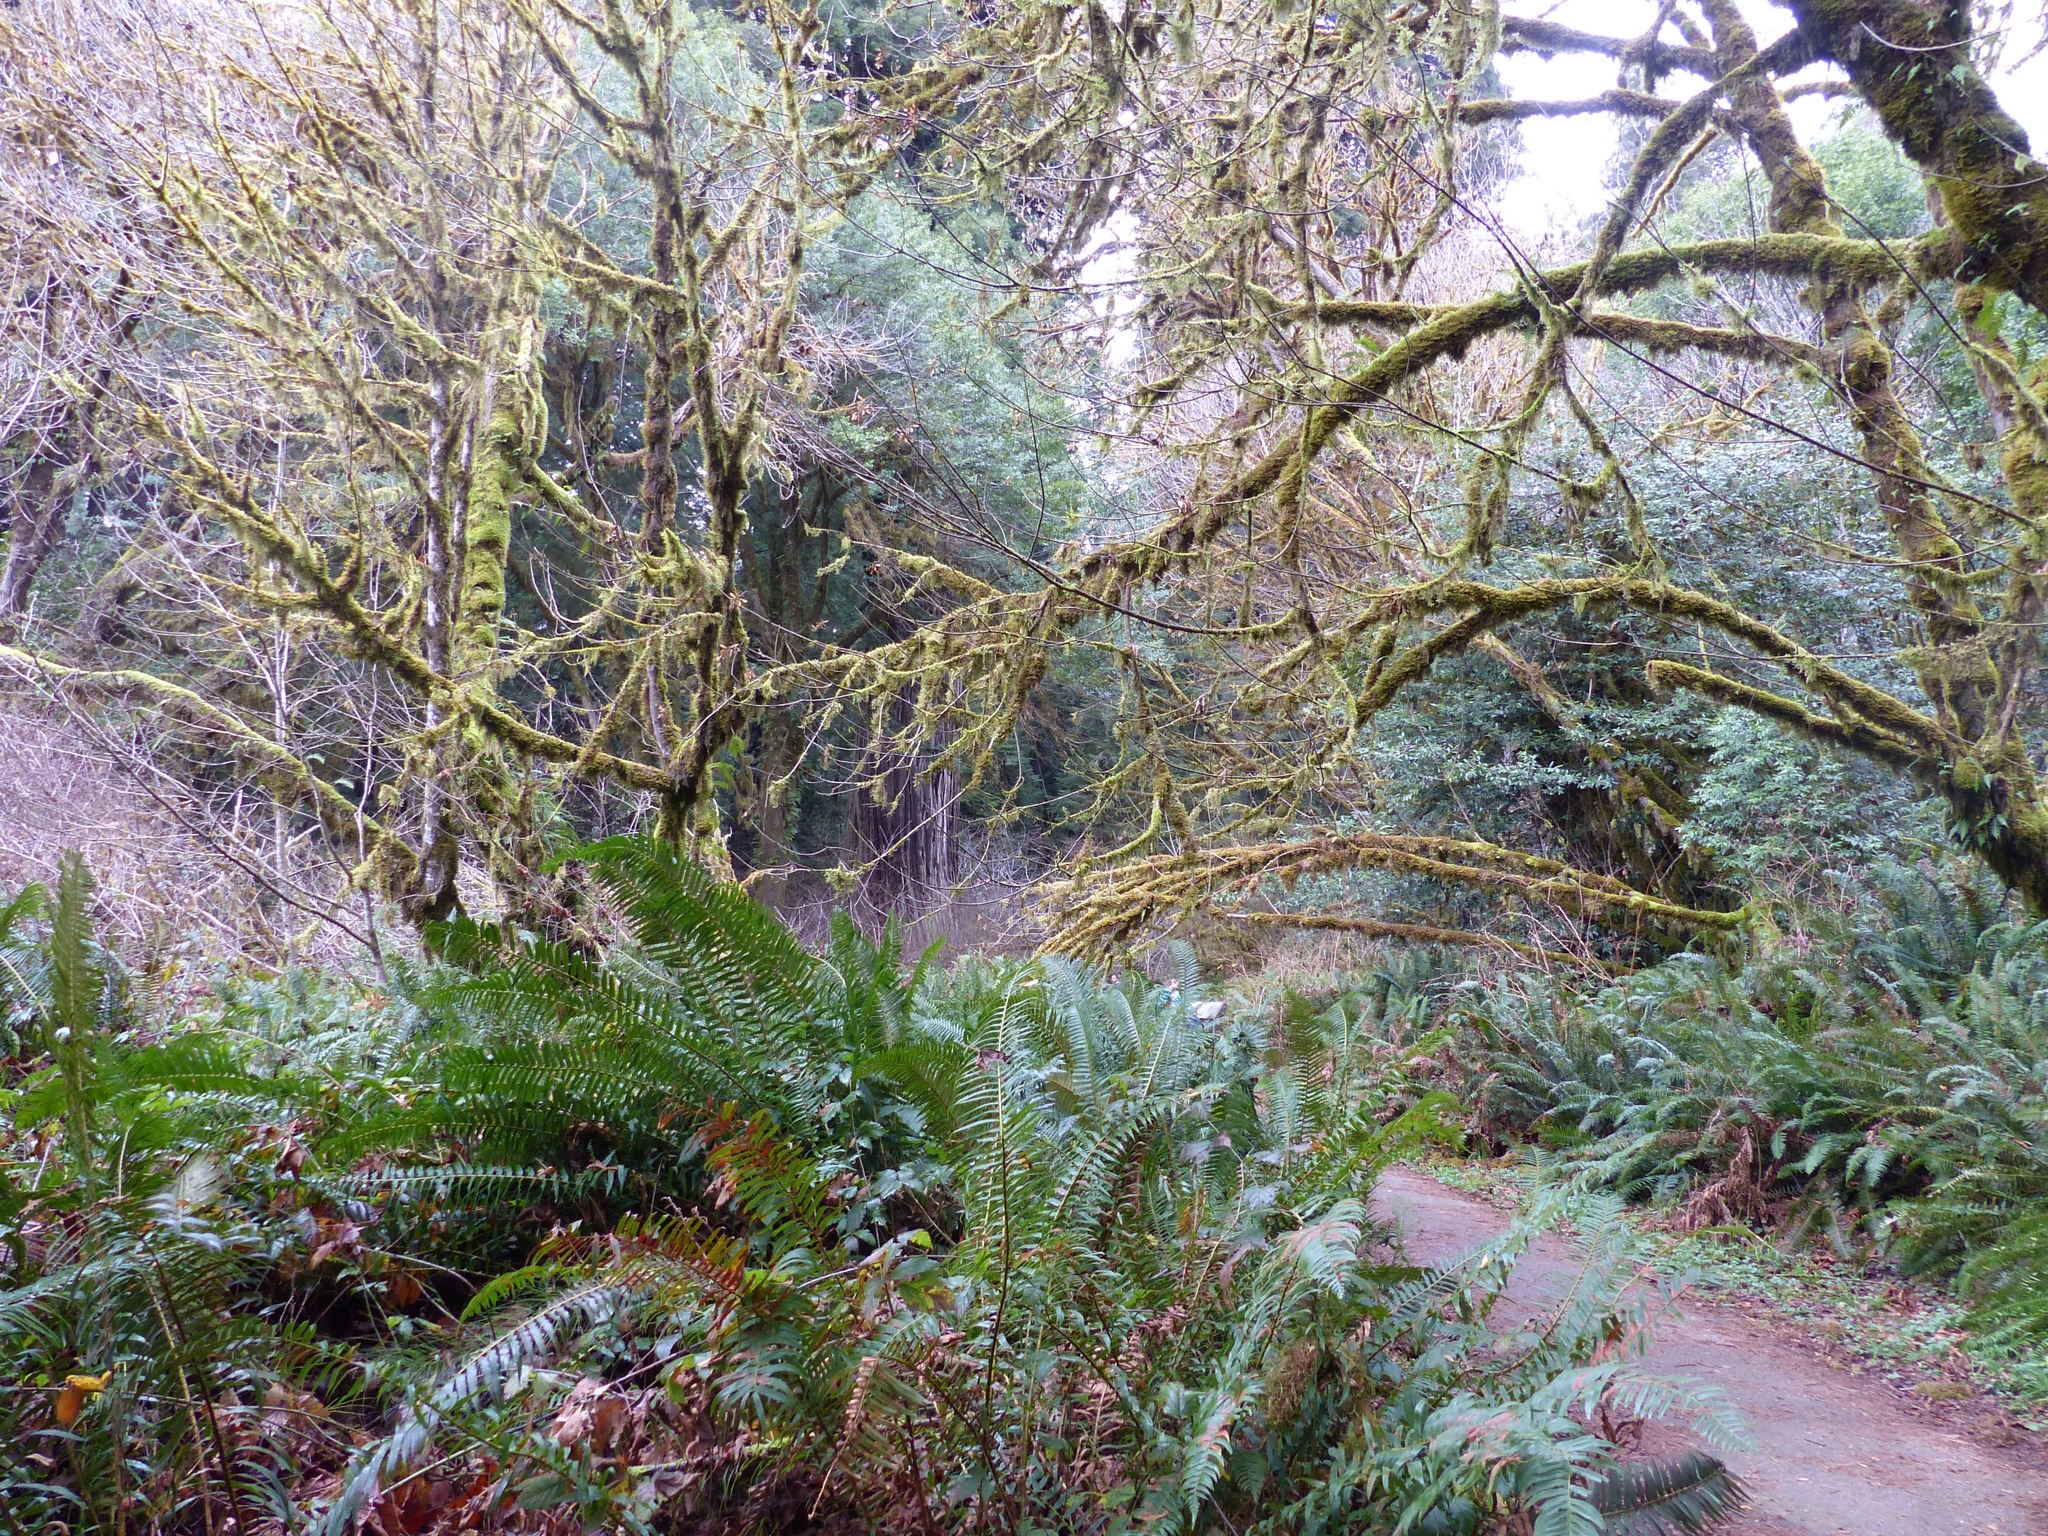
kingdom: Plantae
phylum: Tracheophyta
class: Polypodiopsida
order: Polypodiales
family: Dryopteridaceae
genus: Polystichum
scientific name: Polystichum munitum
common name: Western sword-fern
